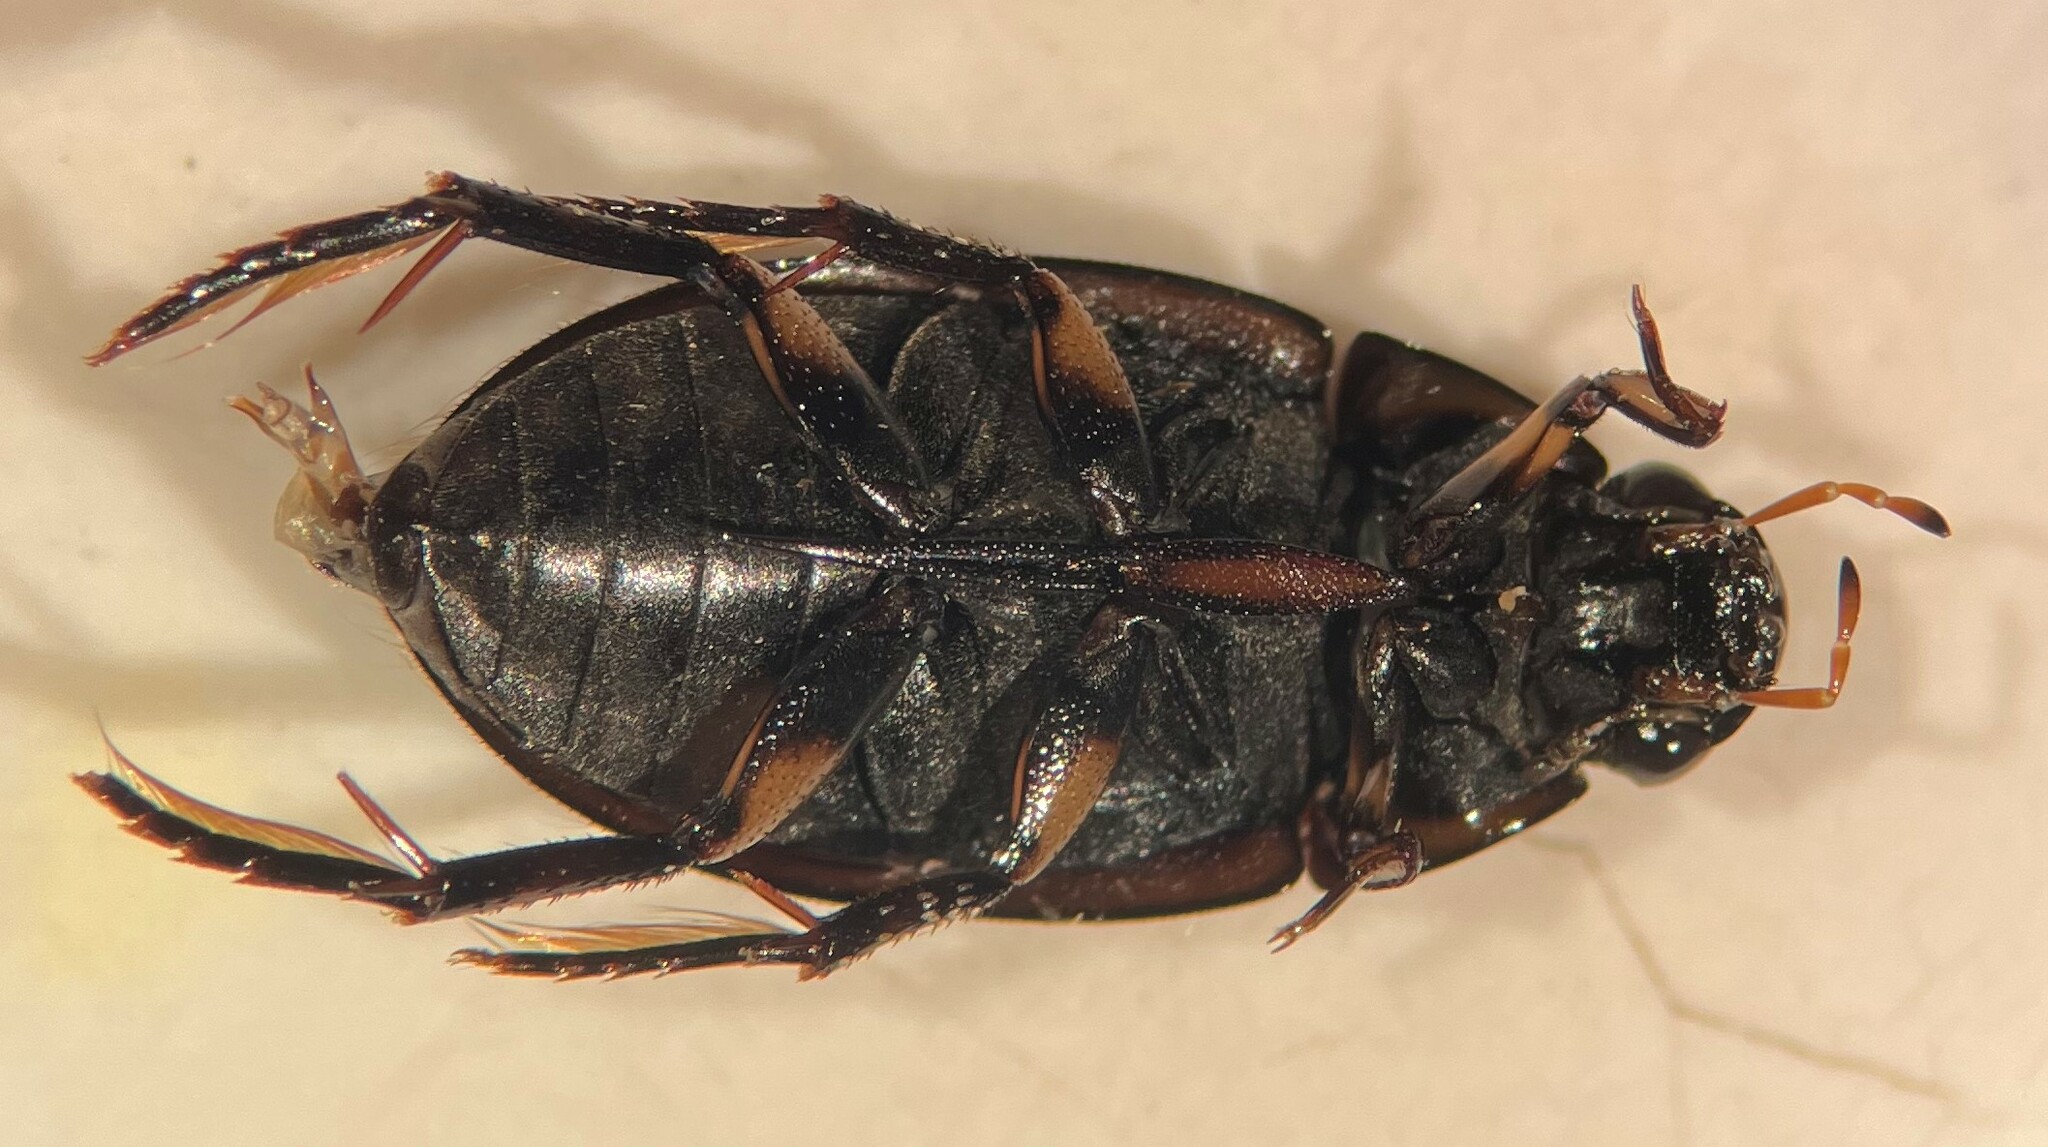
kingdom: Animalia
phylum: Arthropoda
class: Insecta
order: Coleoptera
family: Hydrophilidae
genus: Tropisternus
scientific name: Tropisternus mixtus
